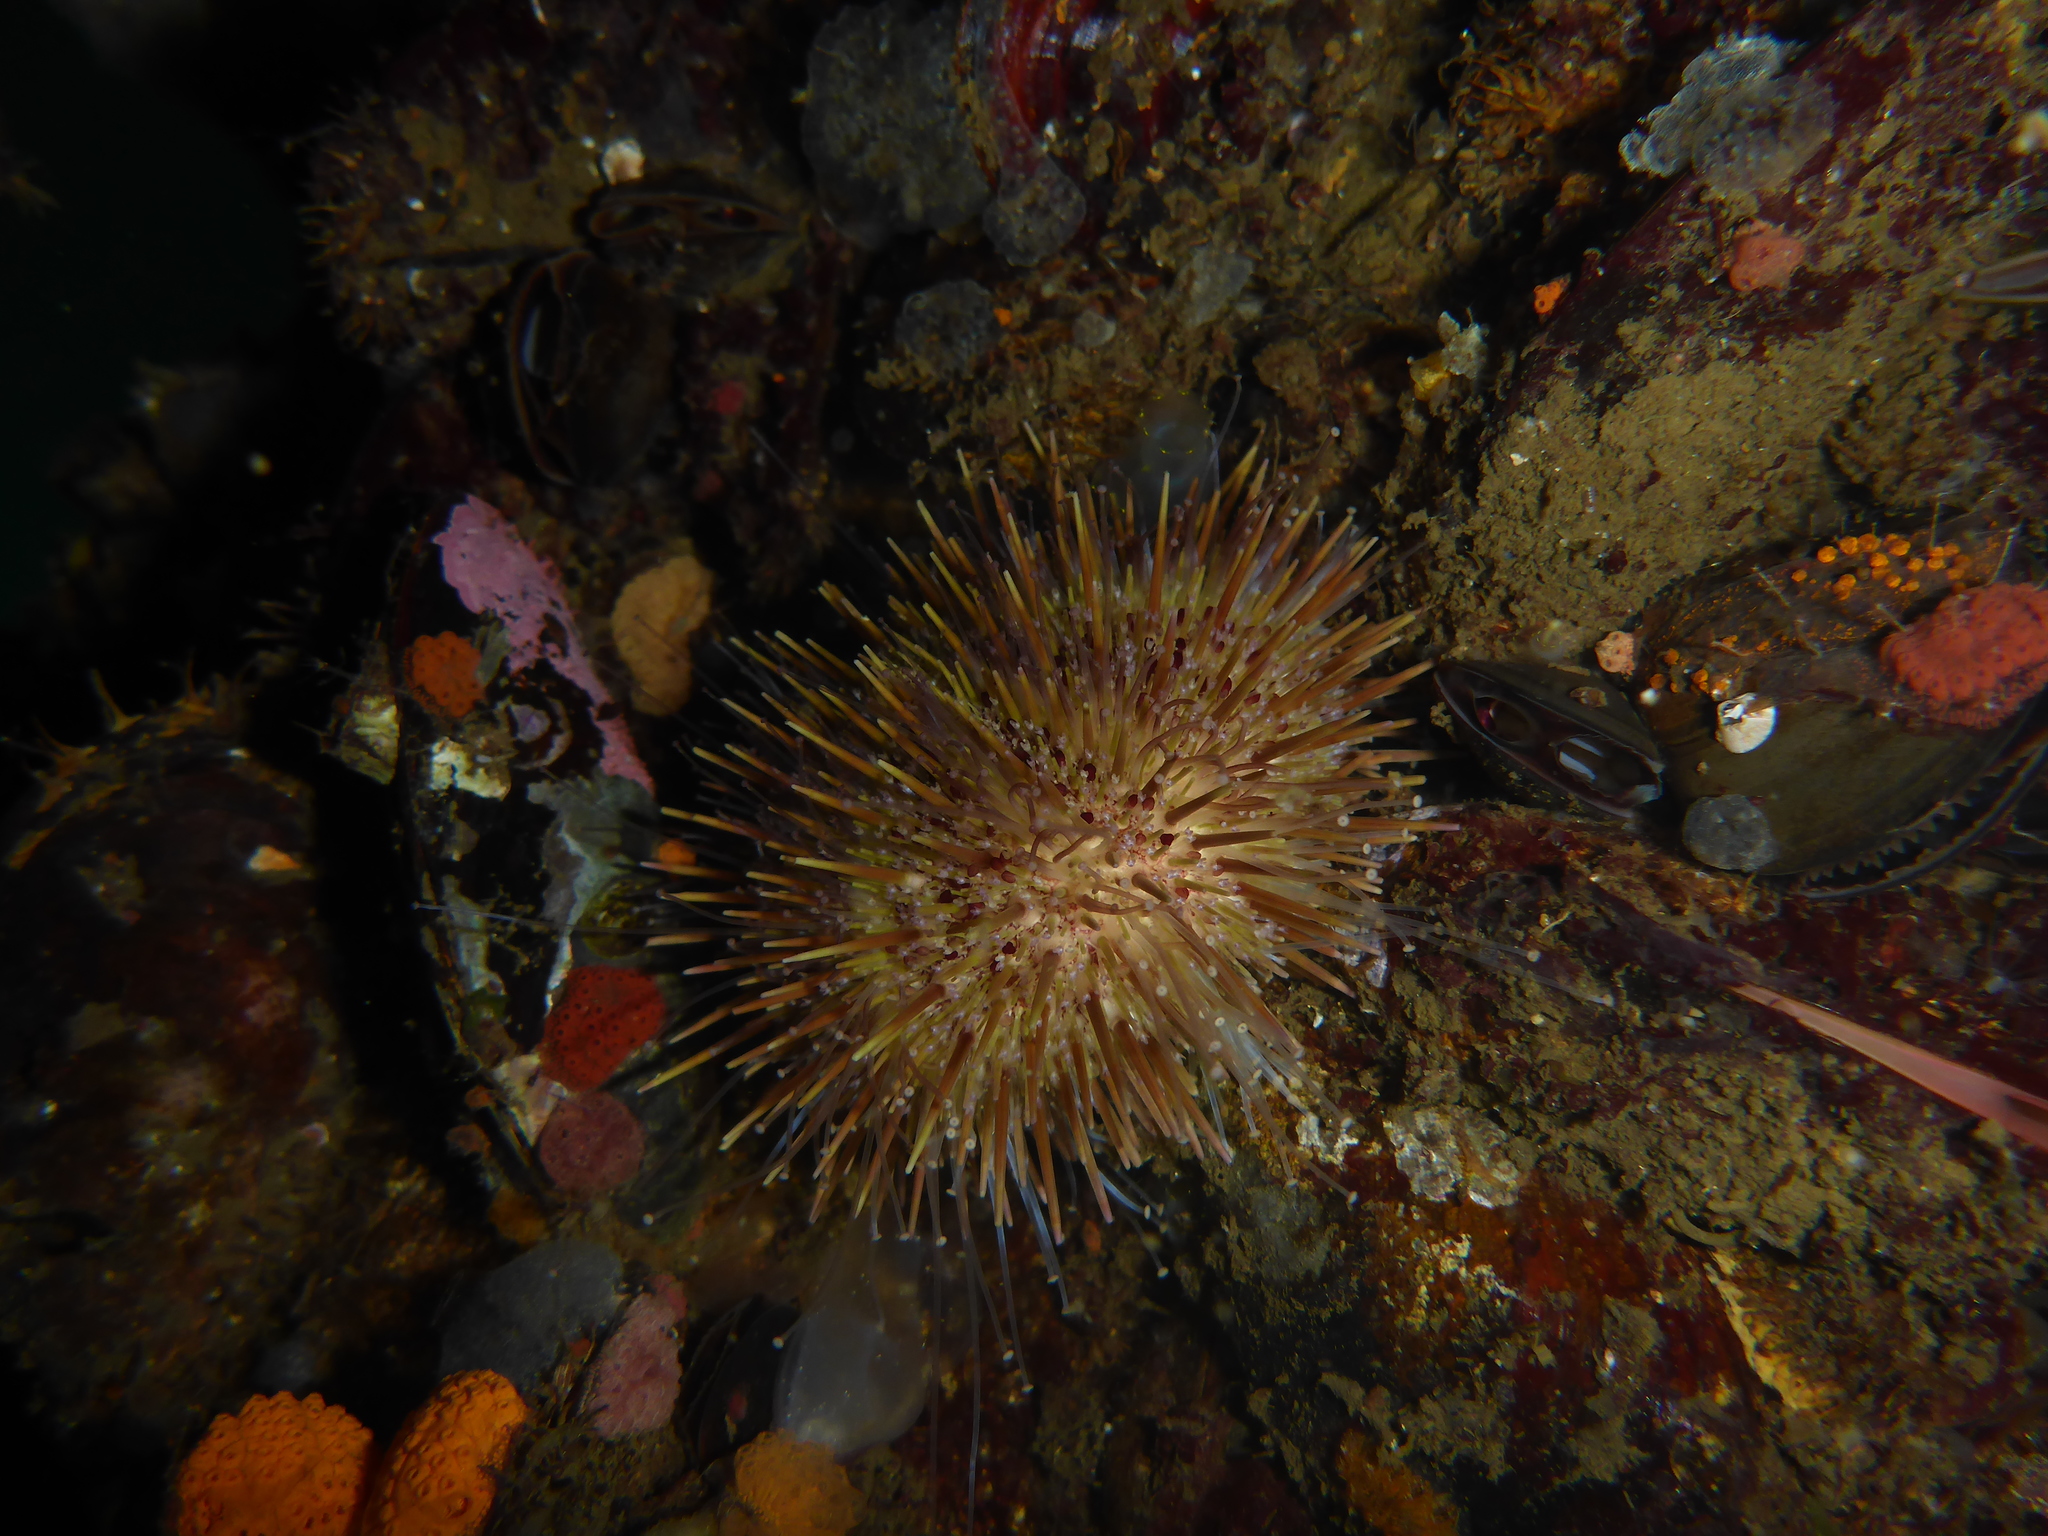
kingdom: Animalia
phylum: Echinodermata
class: Echinoidea
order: Camarodonta
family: Strongylocentrotidae
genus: Strongylocentrotus
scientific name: Strongylocentrotus droebachiensis
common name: Northern sea urchin
